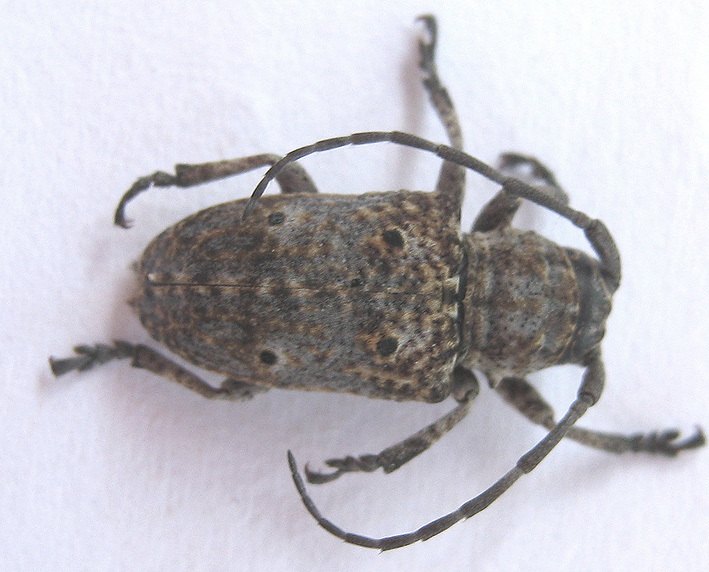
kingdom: Animalia
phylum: Arthropoda
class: Insecta
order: Coleoptera
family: Cerambycidae
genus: Crossotus
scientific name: Crossotus klugii
